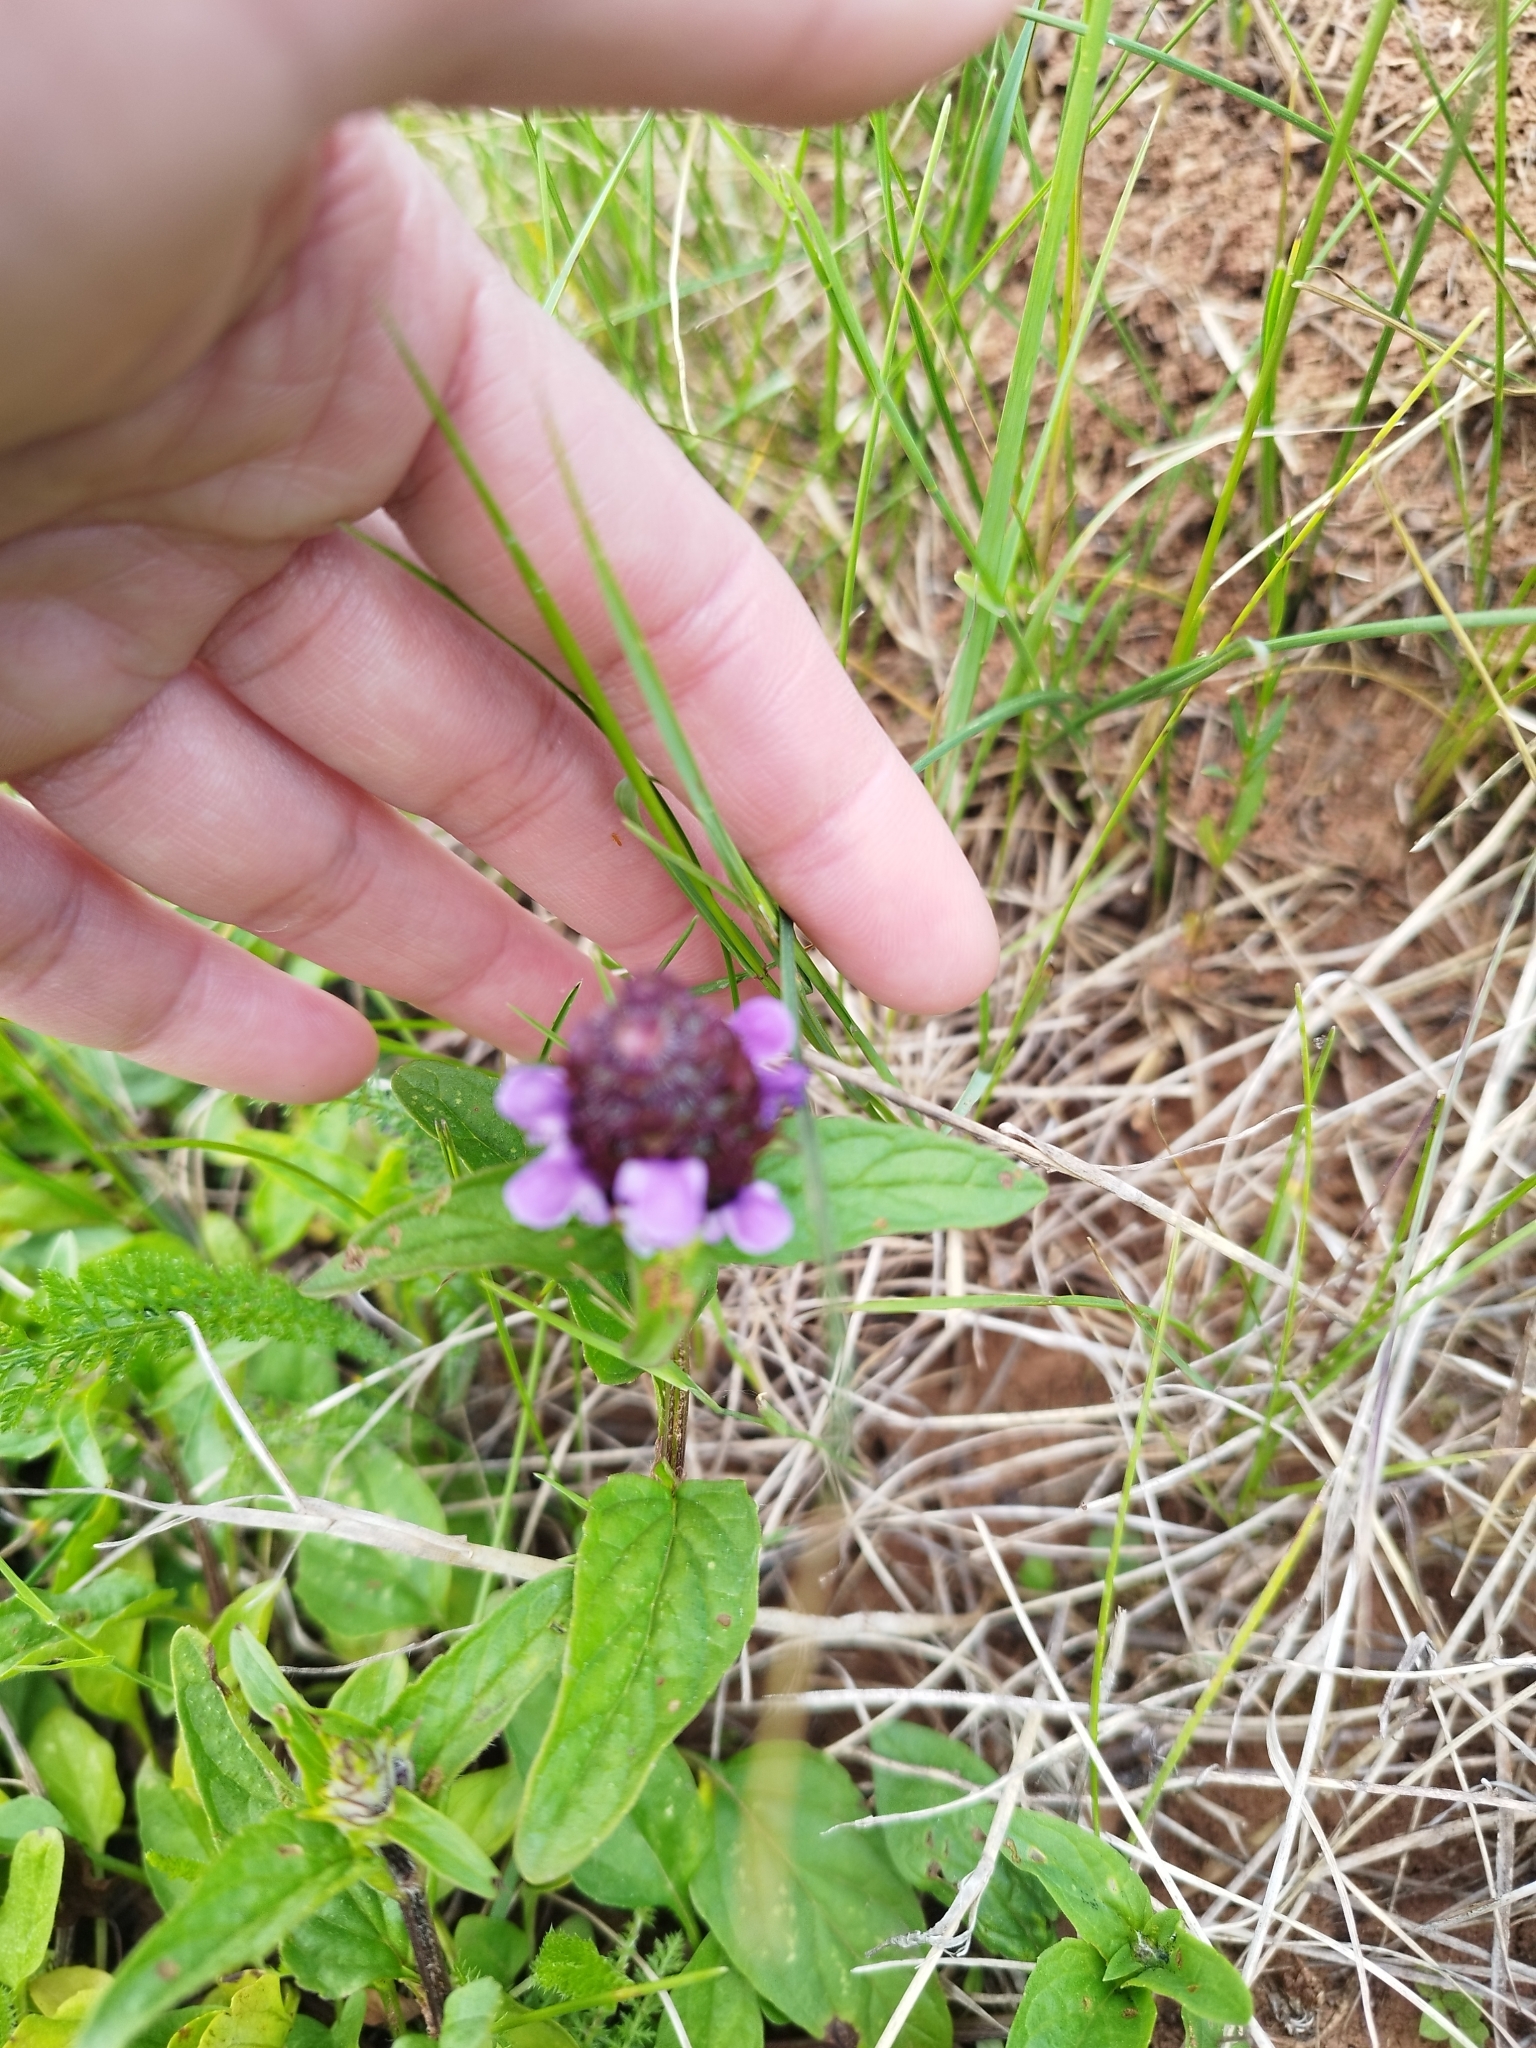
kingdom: Plantae
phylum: Tracheophyta
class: Magnoliopsida
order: Lamiales
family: Lamiaceae
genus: Prunella
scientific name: Prunella vulgaris
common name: Heal-all
